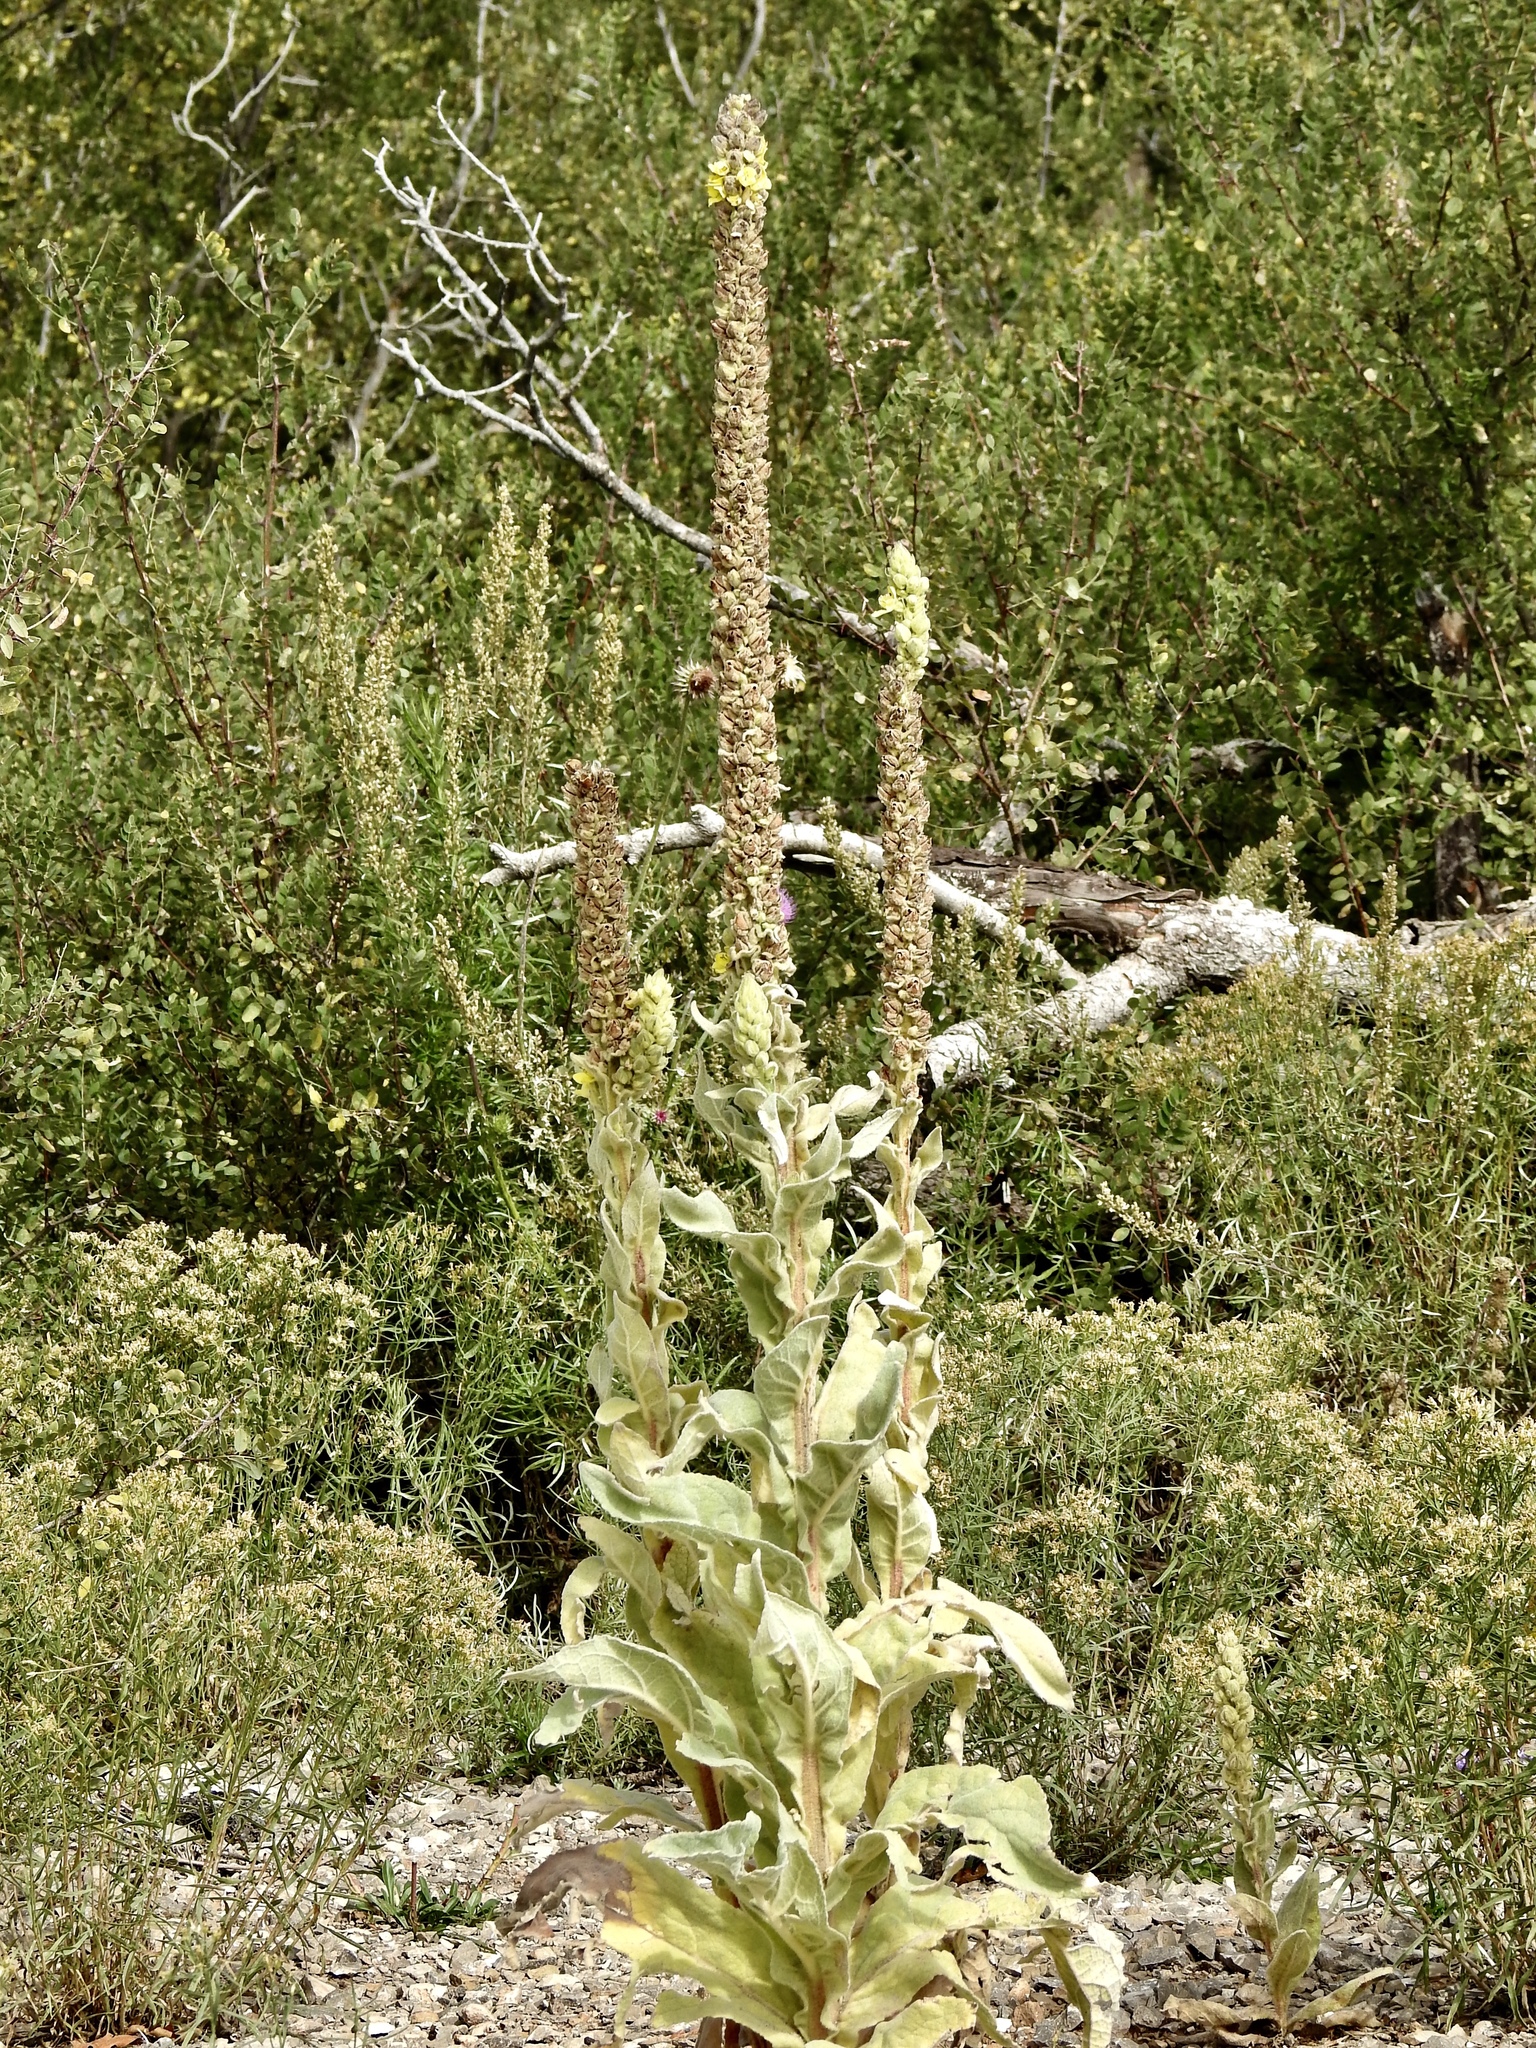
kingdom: Plantae
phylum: Tracheophyta
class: Magnoliopsida
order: Lamiales
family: Scrophulariaceae
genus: Verbascum
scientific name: Verbascum thapsus
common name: Common mullein
